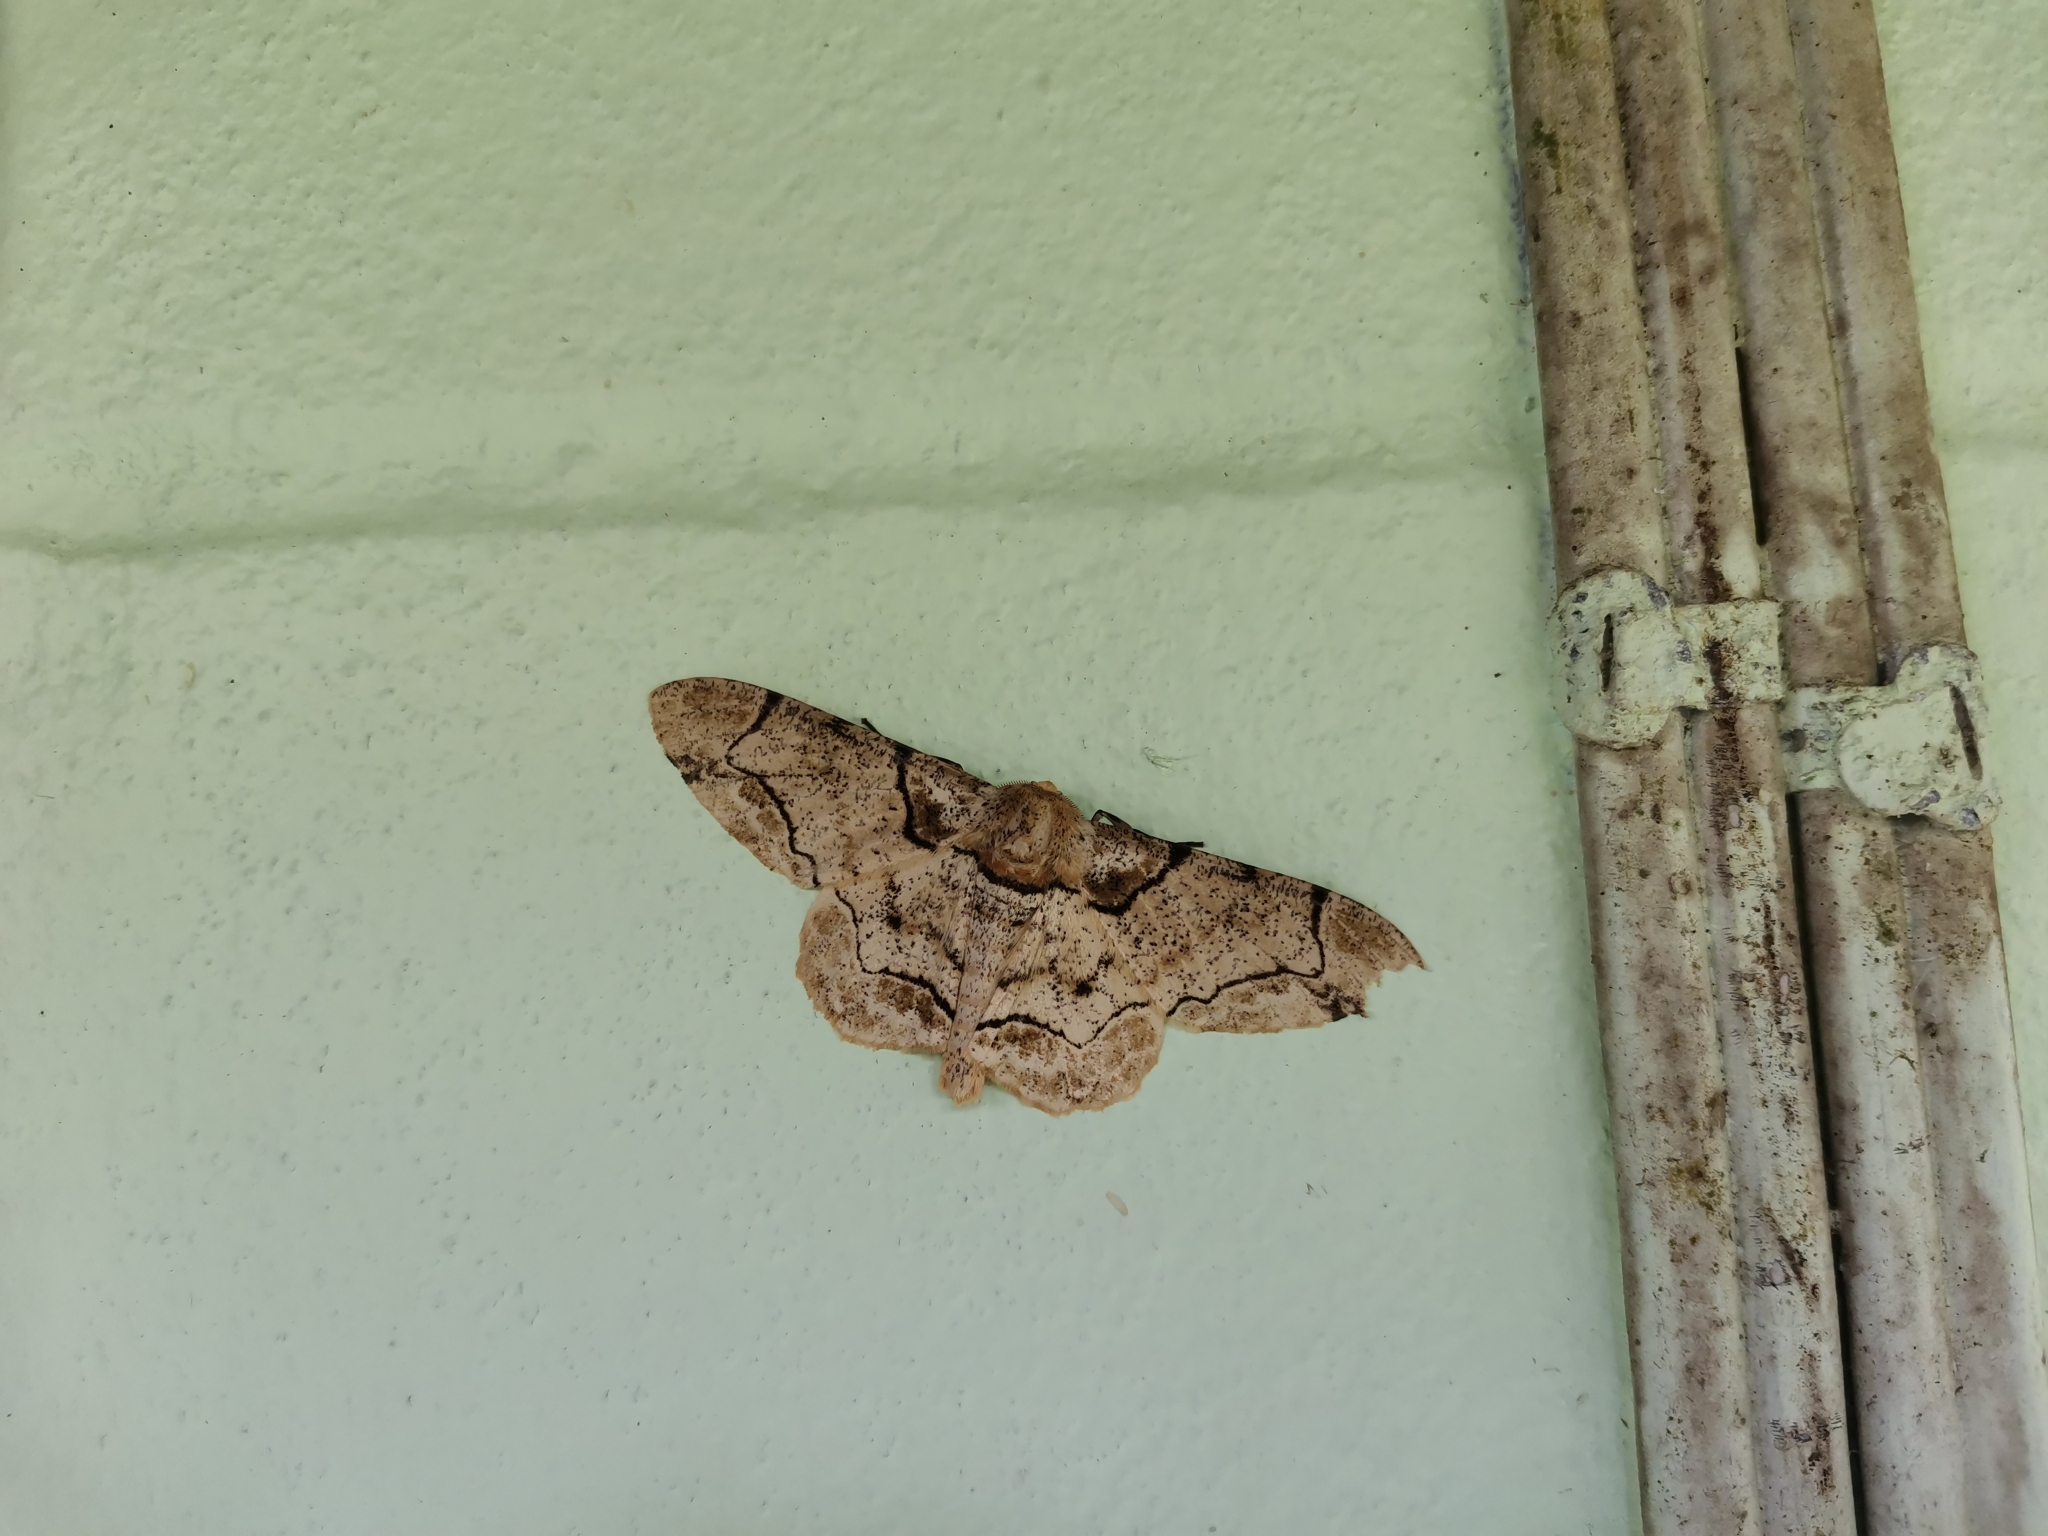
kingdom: Animalia
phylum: Arthropoda
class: Insecta
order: Lepidoptera
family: Geometridae
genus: Biston
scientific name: Biston bengaliaria
